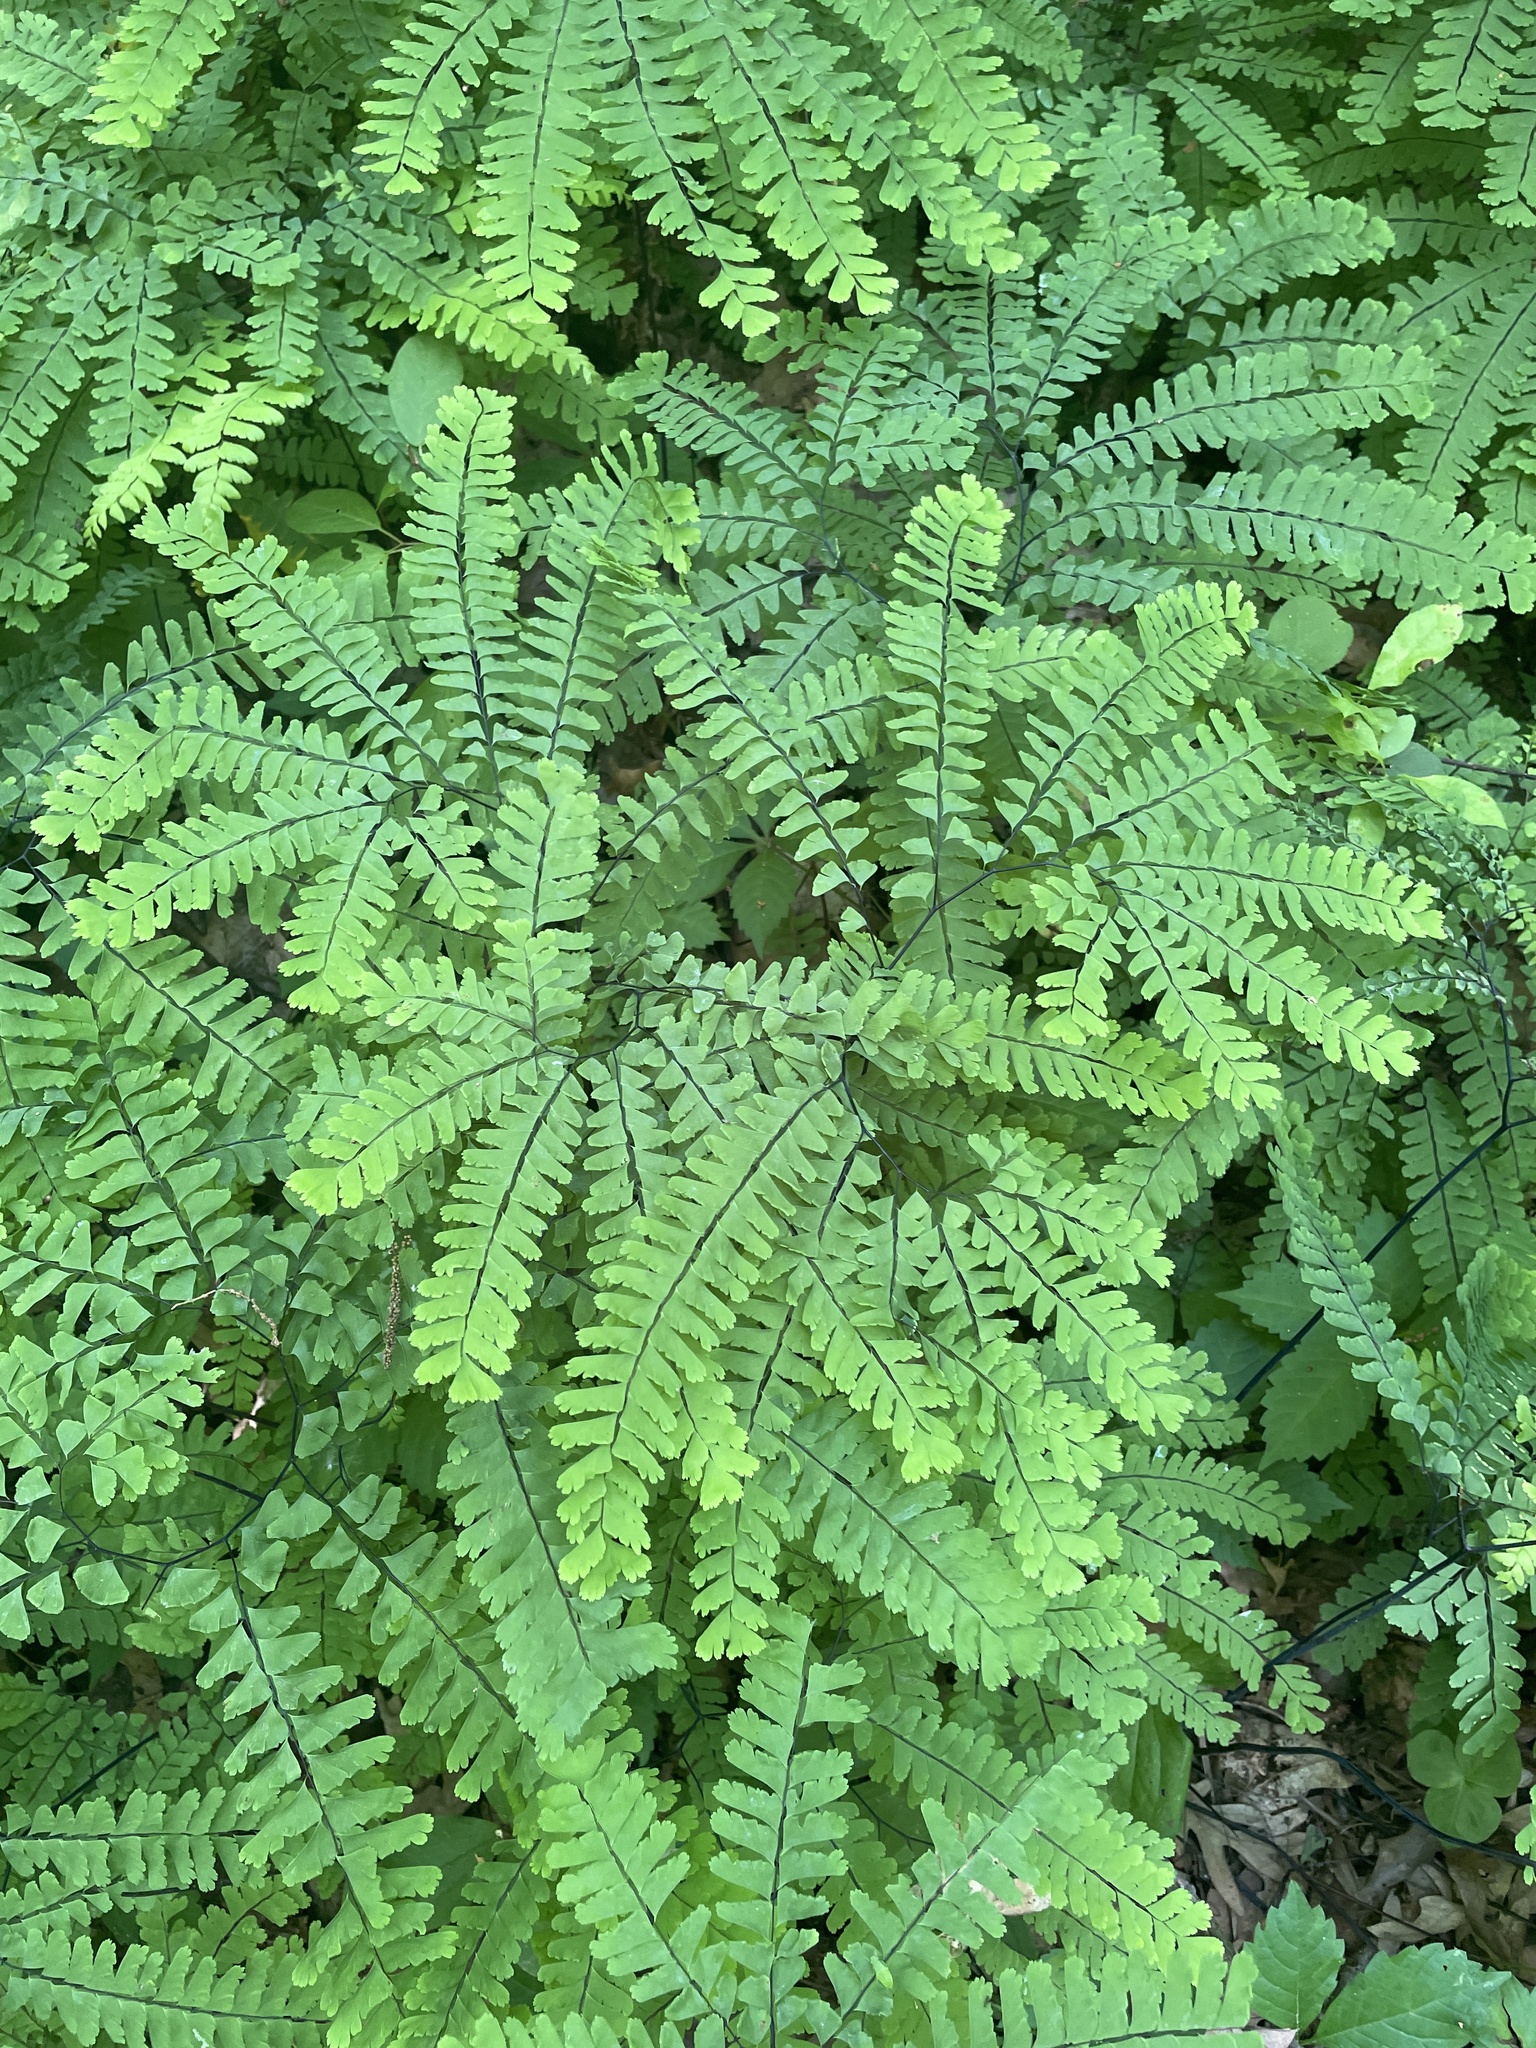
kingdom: Plantae
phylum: Tracheophyta
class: Polypodiopsida
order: Polypodiales
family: Pteridaceae
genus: Adiantum
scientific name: Adiantum pedatum
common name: Five-finger fern
